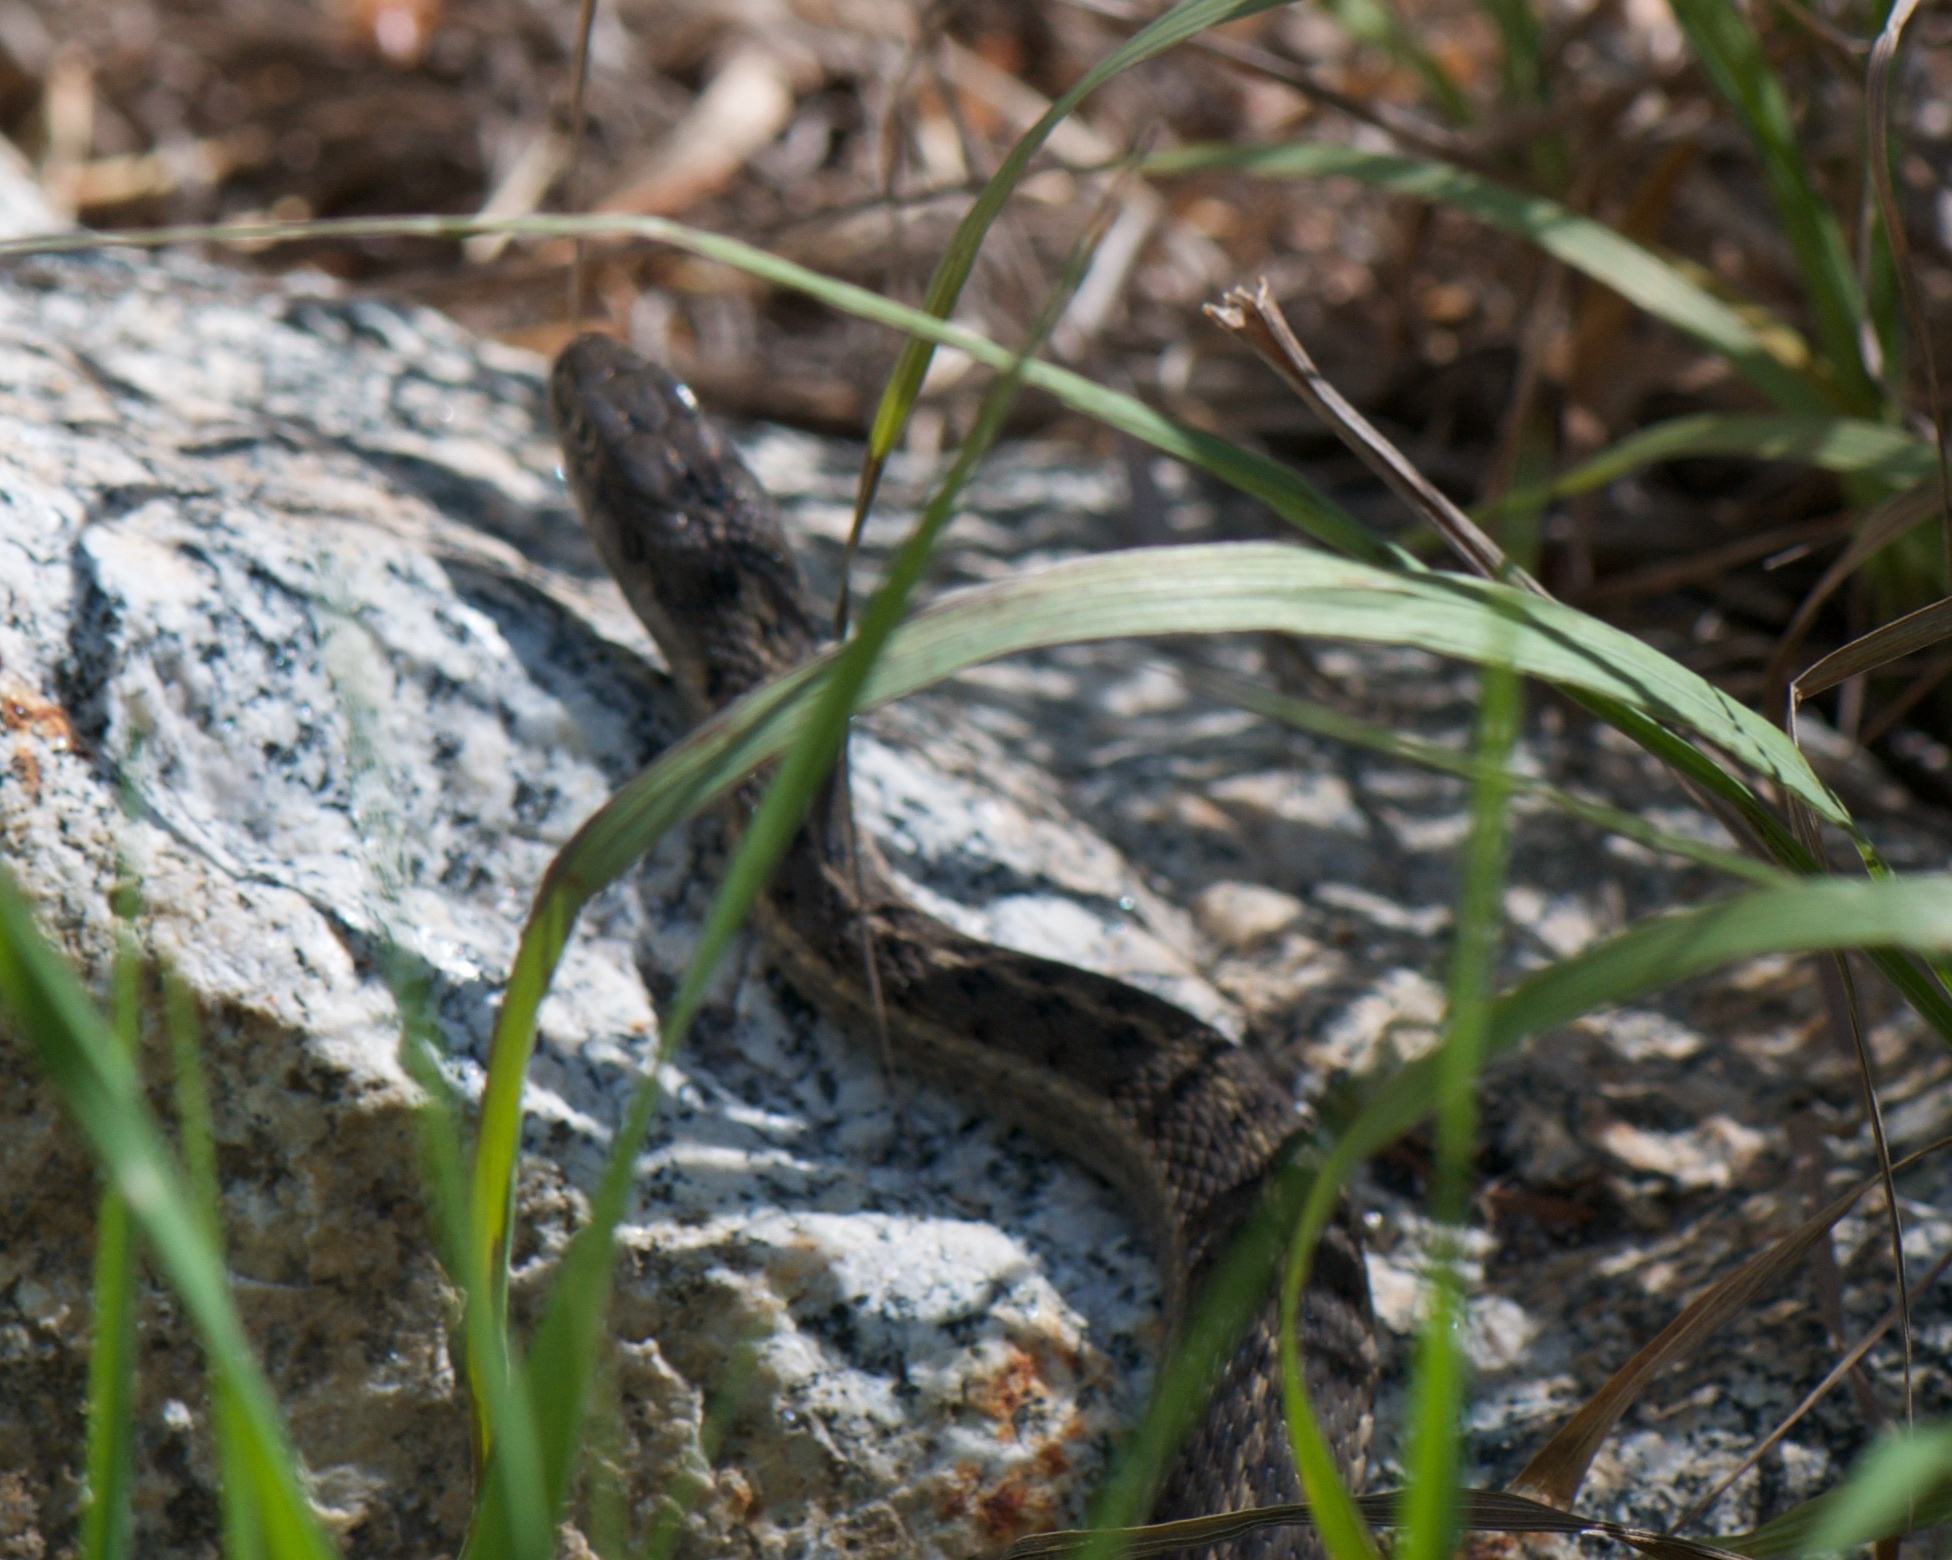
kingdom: Animalia
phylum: Chordata
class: Squamata
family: Colubridae
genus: Thamnophis
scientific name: Thamnophis elegans
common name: Western terrestrial garter snake
